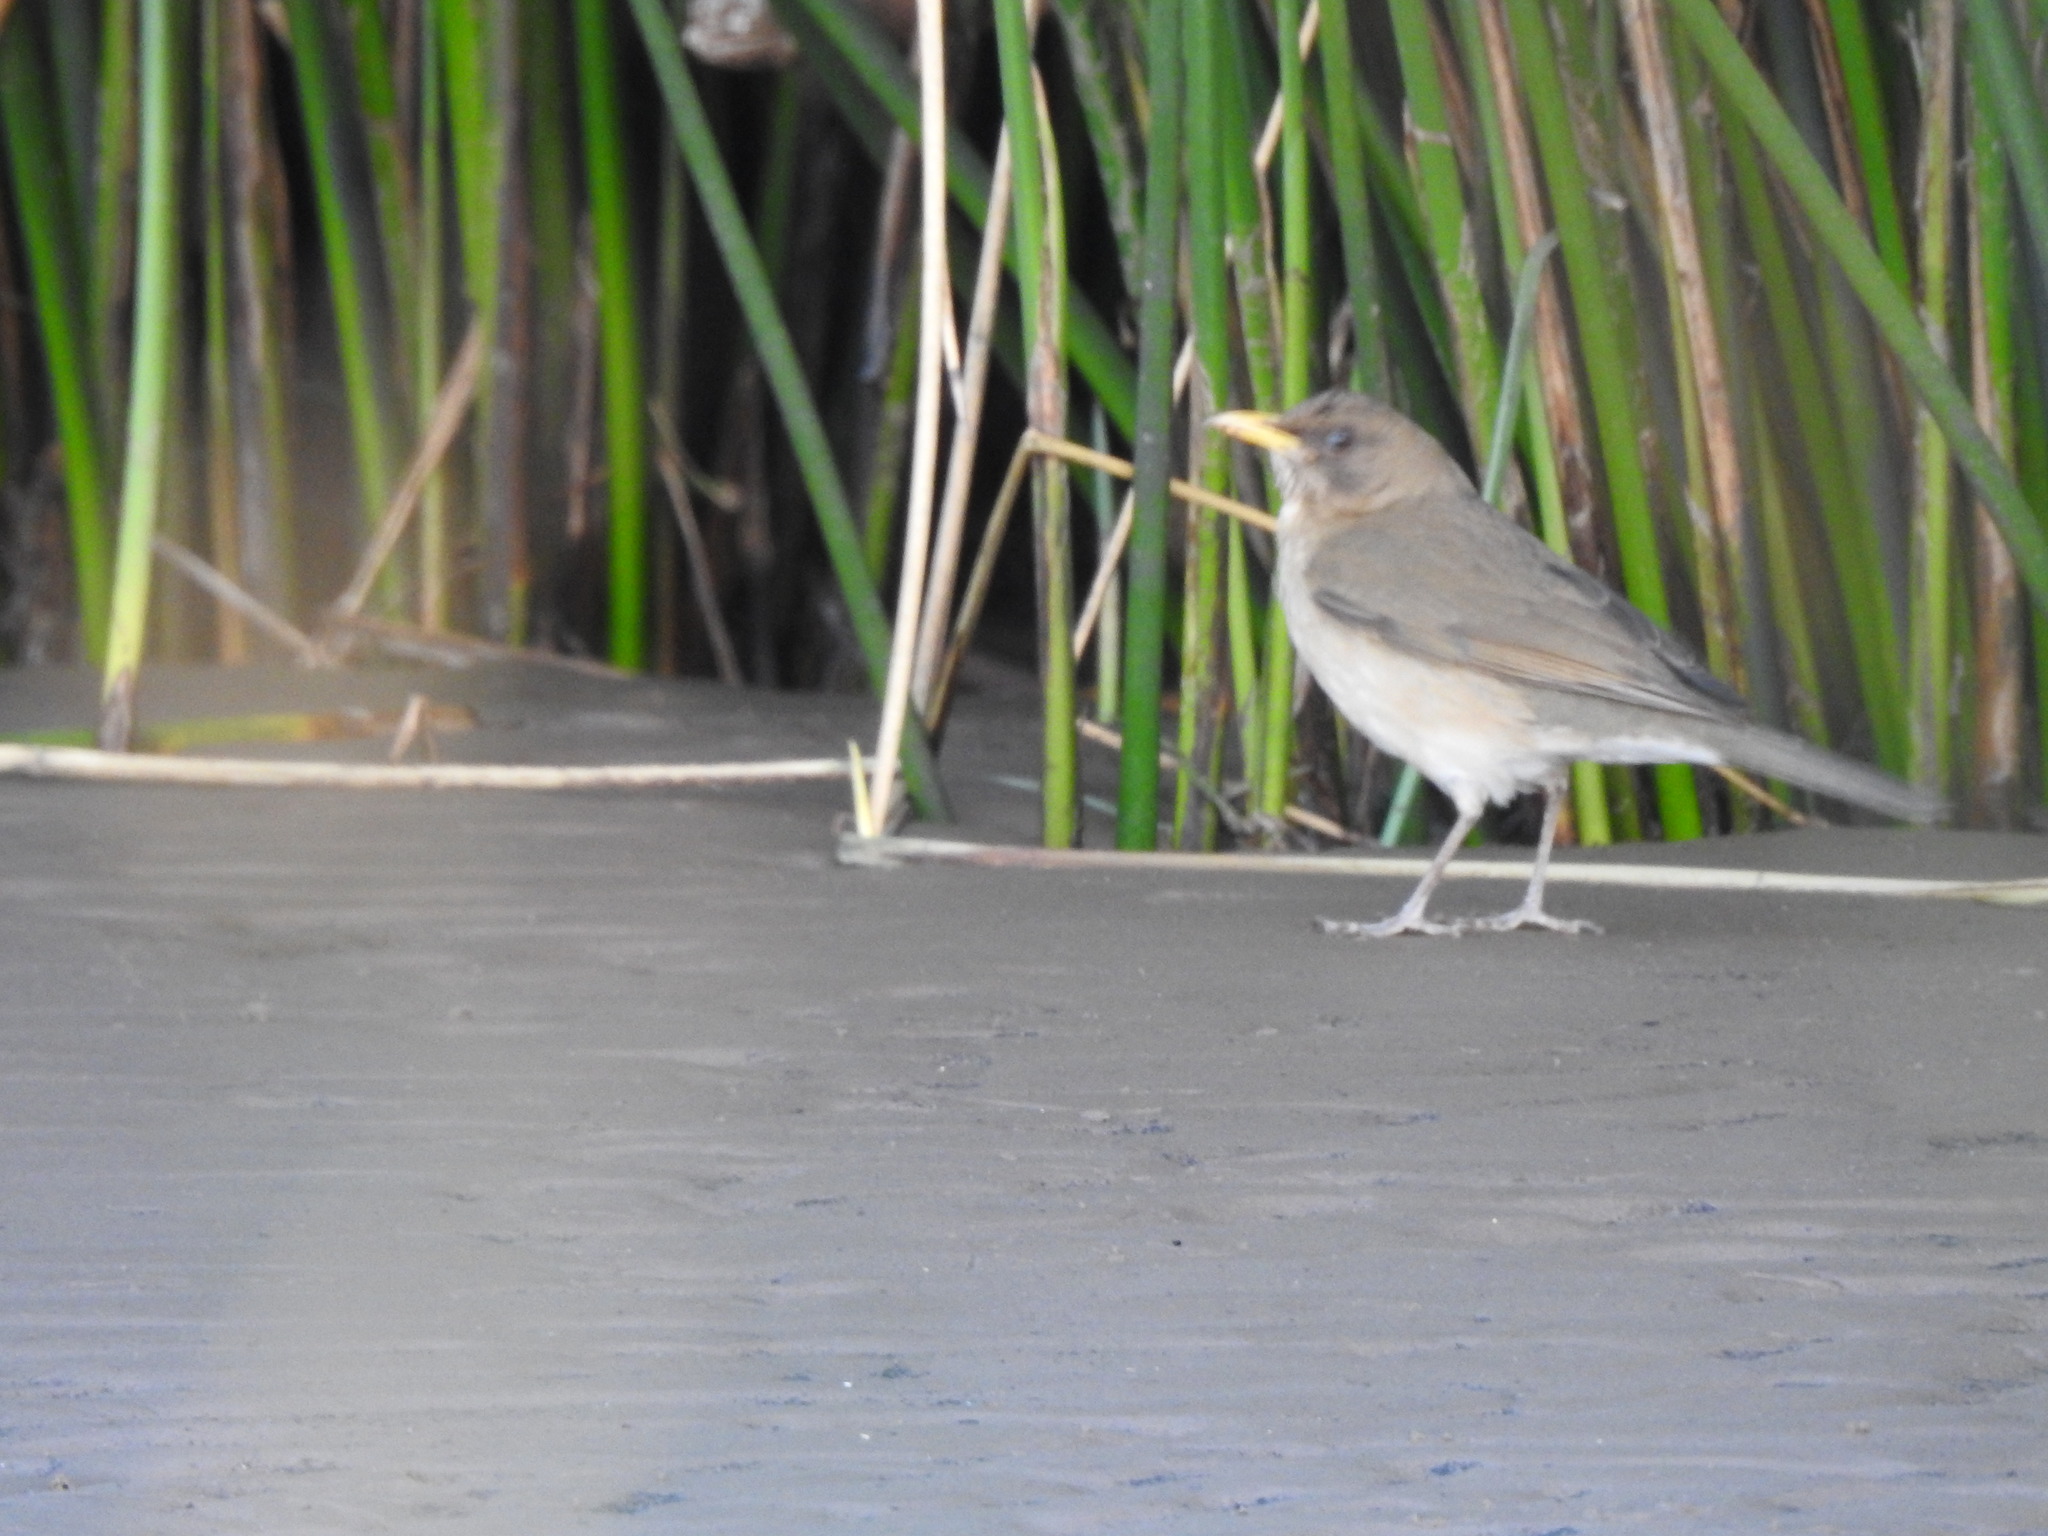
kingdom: Animalia
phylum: Chordata
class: Aves
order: Passeriformes
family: Turdidae
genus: Turdus
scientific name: Turdus amaurochalinus
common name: Creamy-bellied thrush
